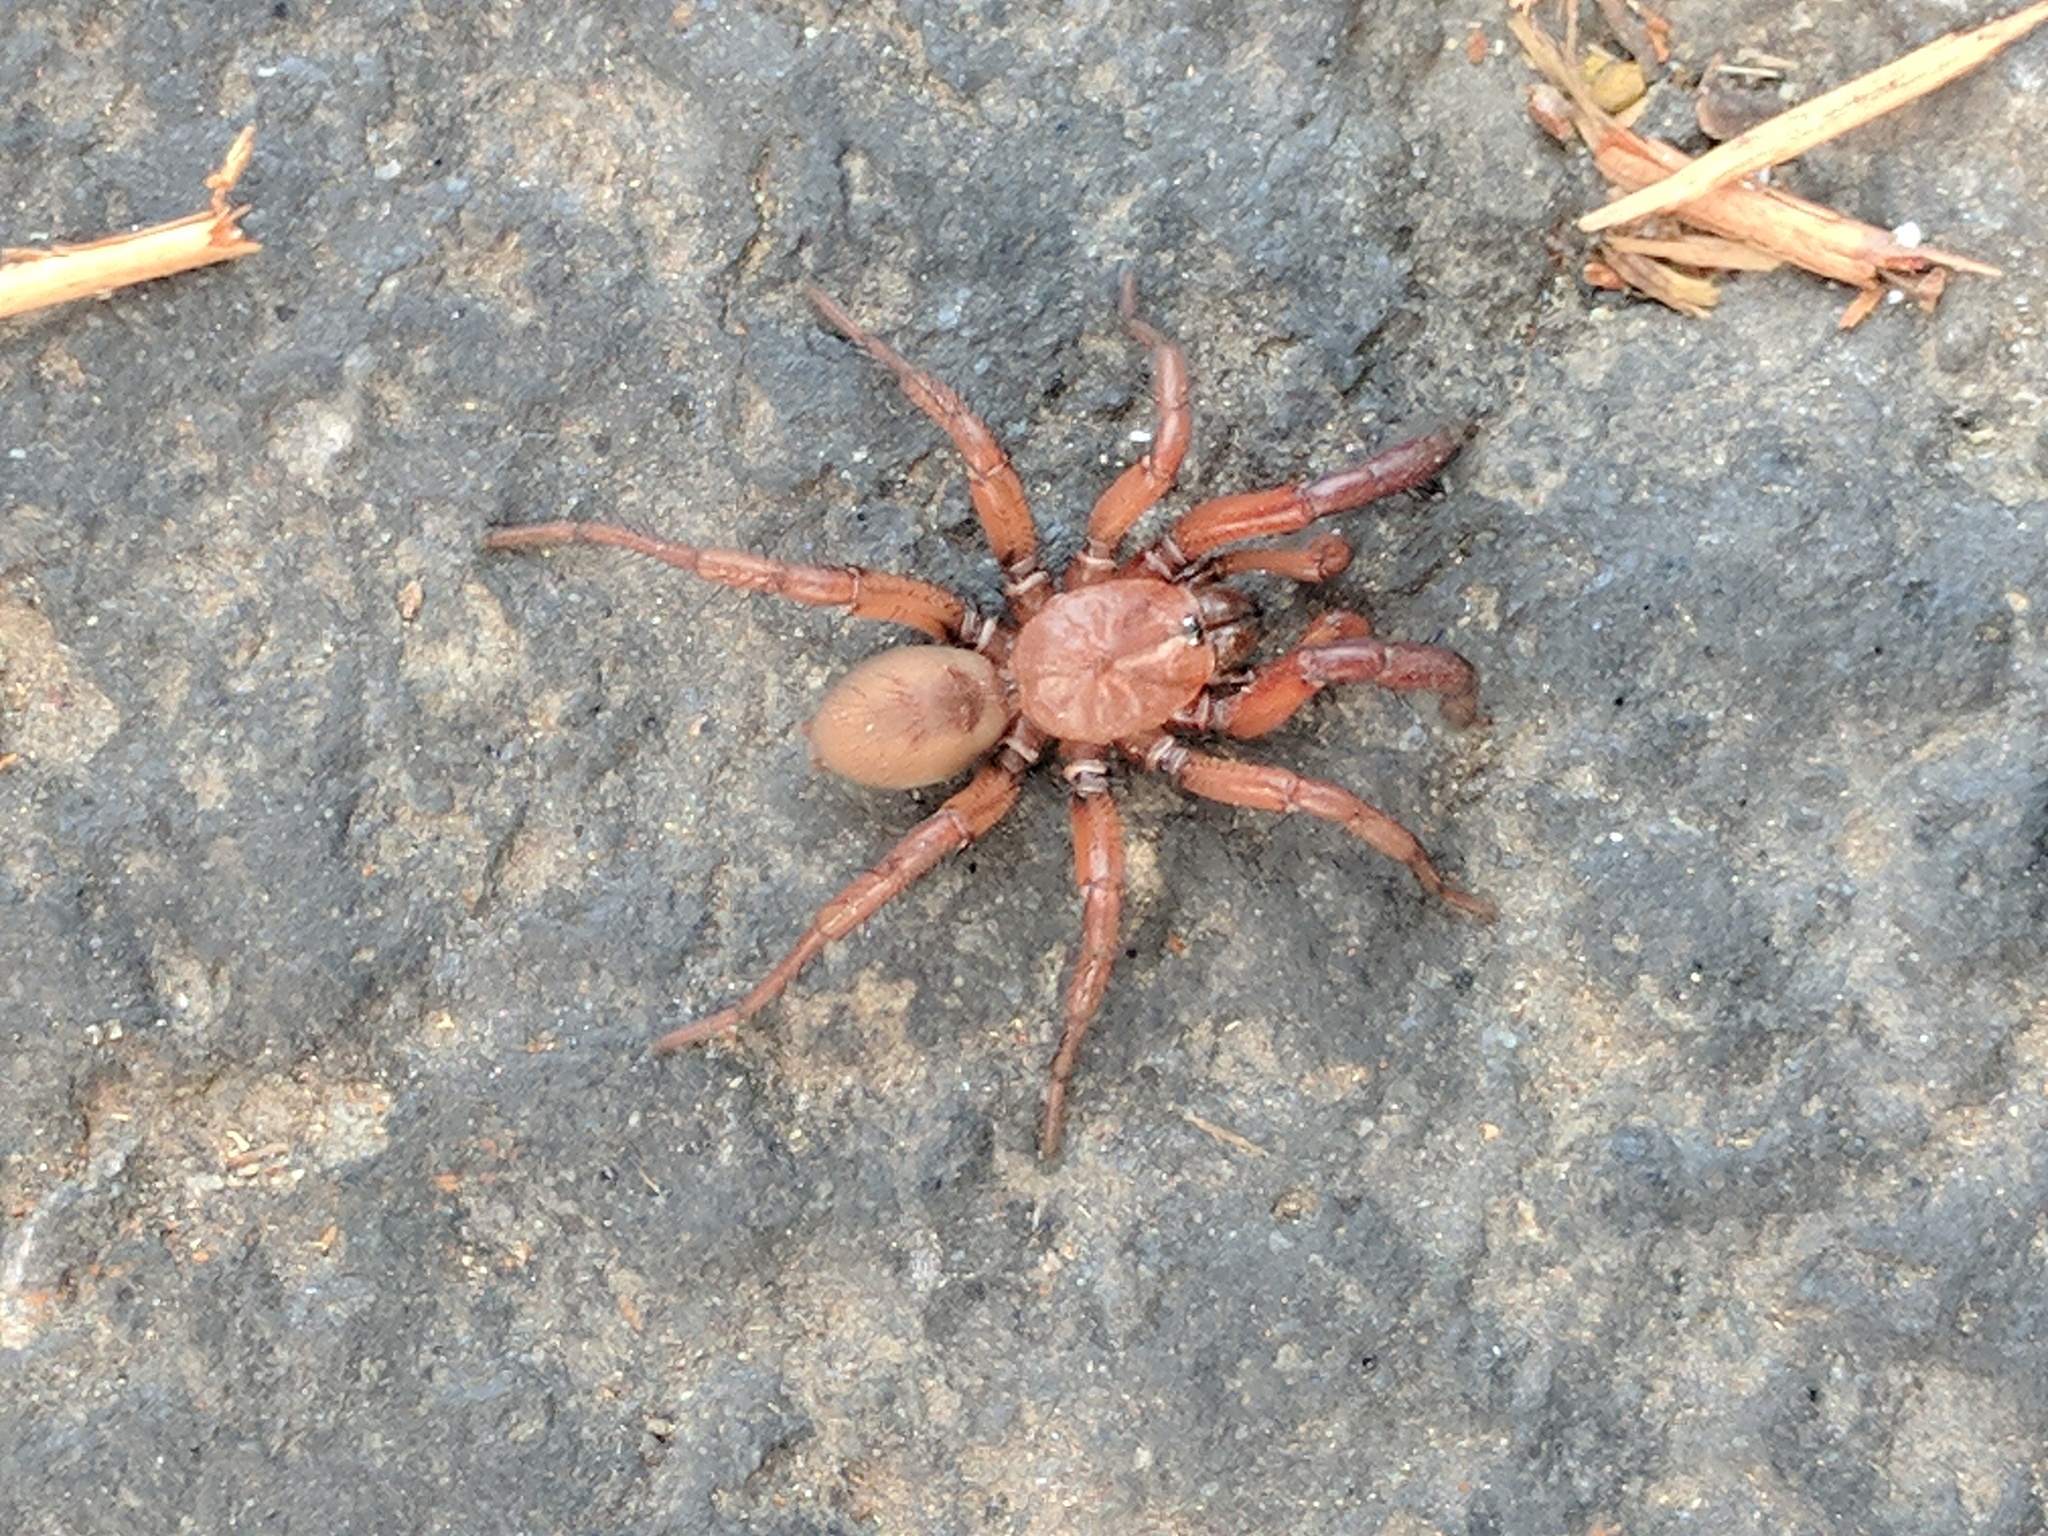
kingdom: Animalia
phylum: Arthropoda
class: Arachnida
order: Araneae
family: Antrodiaetidae
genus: Antrodiaetus
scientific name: Antrodiaetus pugnax
